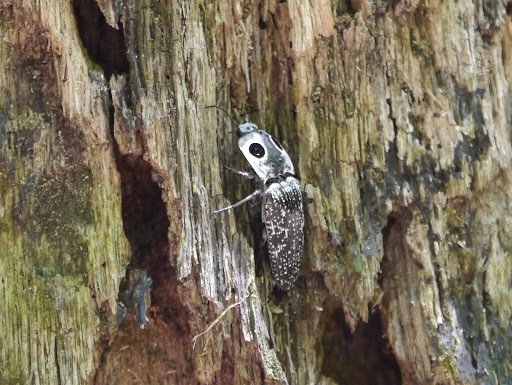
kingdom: Animalia
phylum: Arthropoda
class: Insecta
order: Coleoptera
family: Elateridae
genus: Alaus
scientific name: Alaus oculatus
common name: Eastern eyed click beetle
